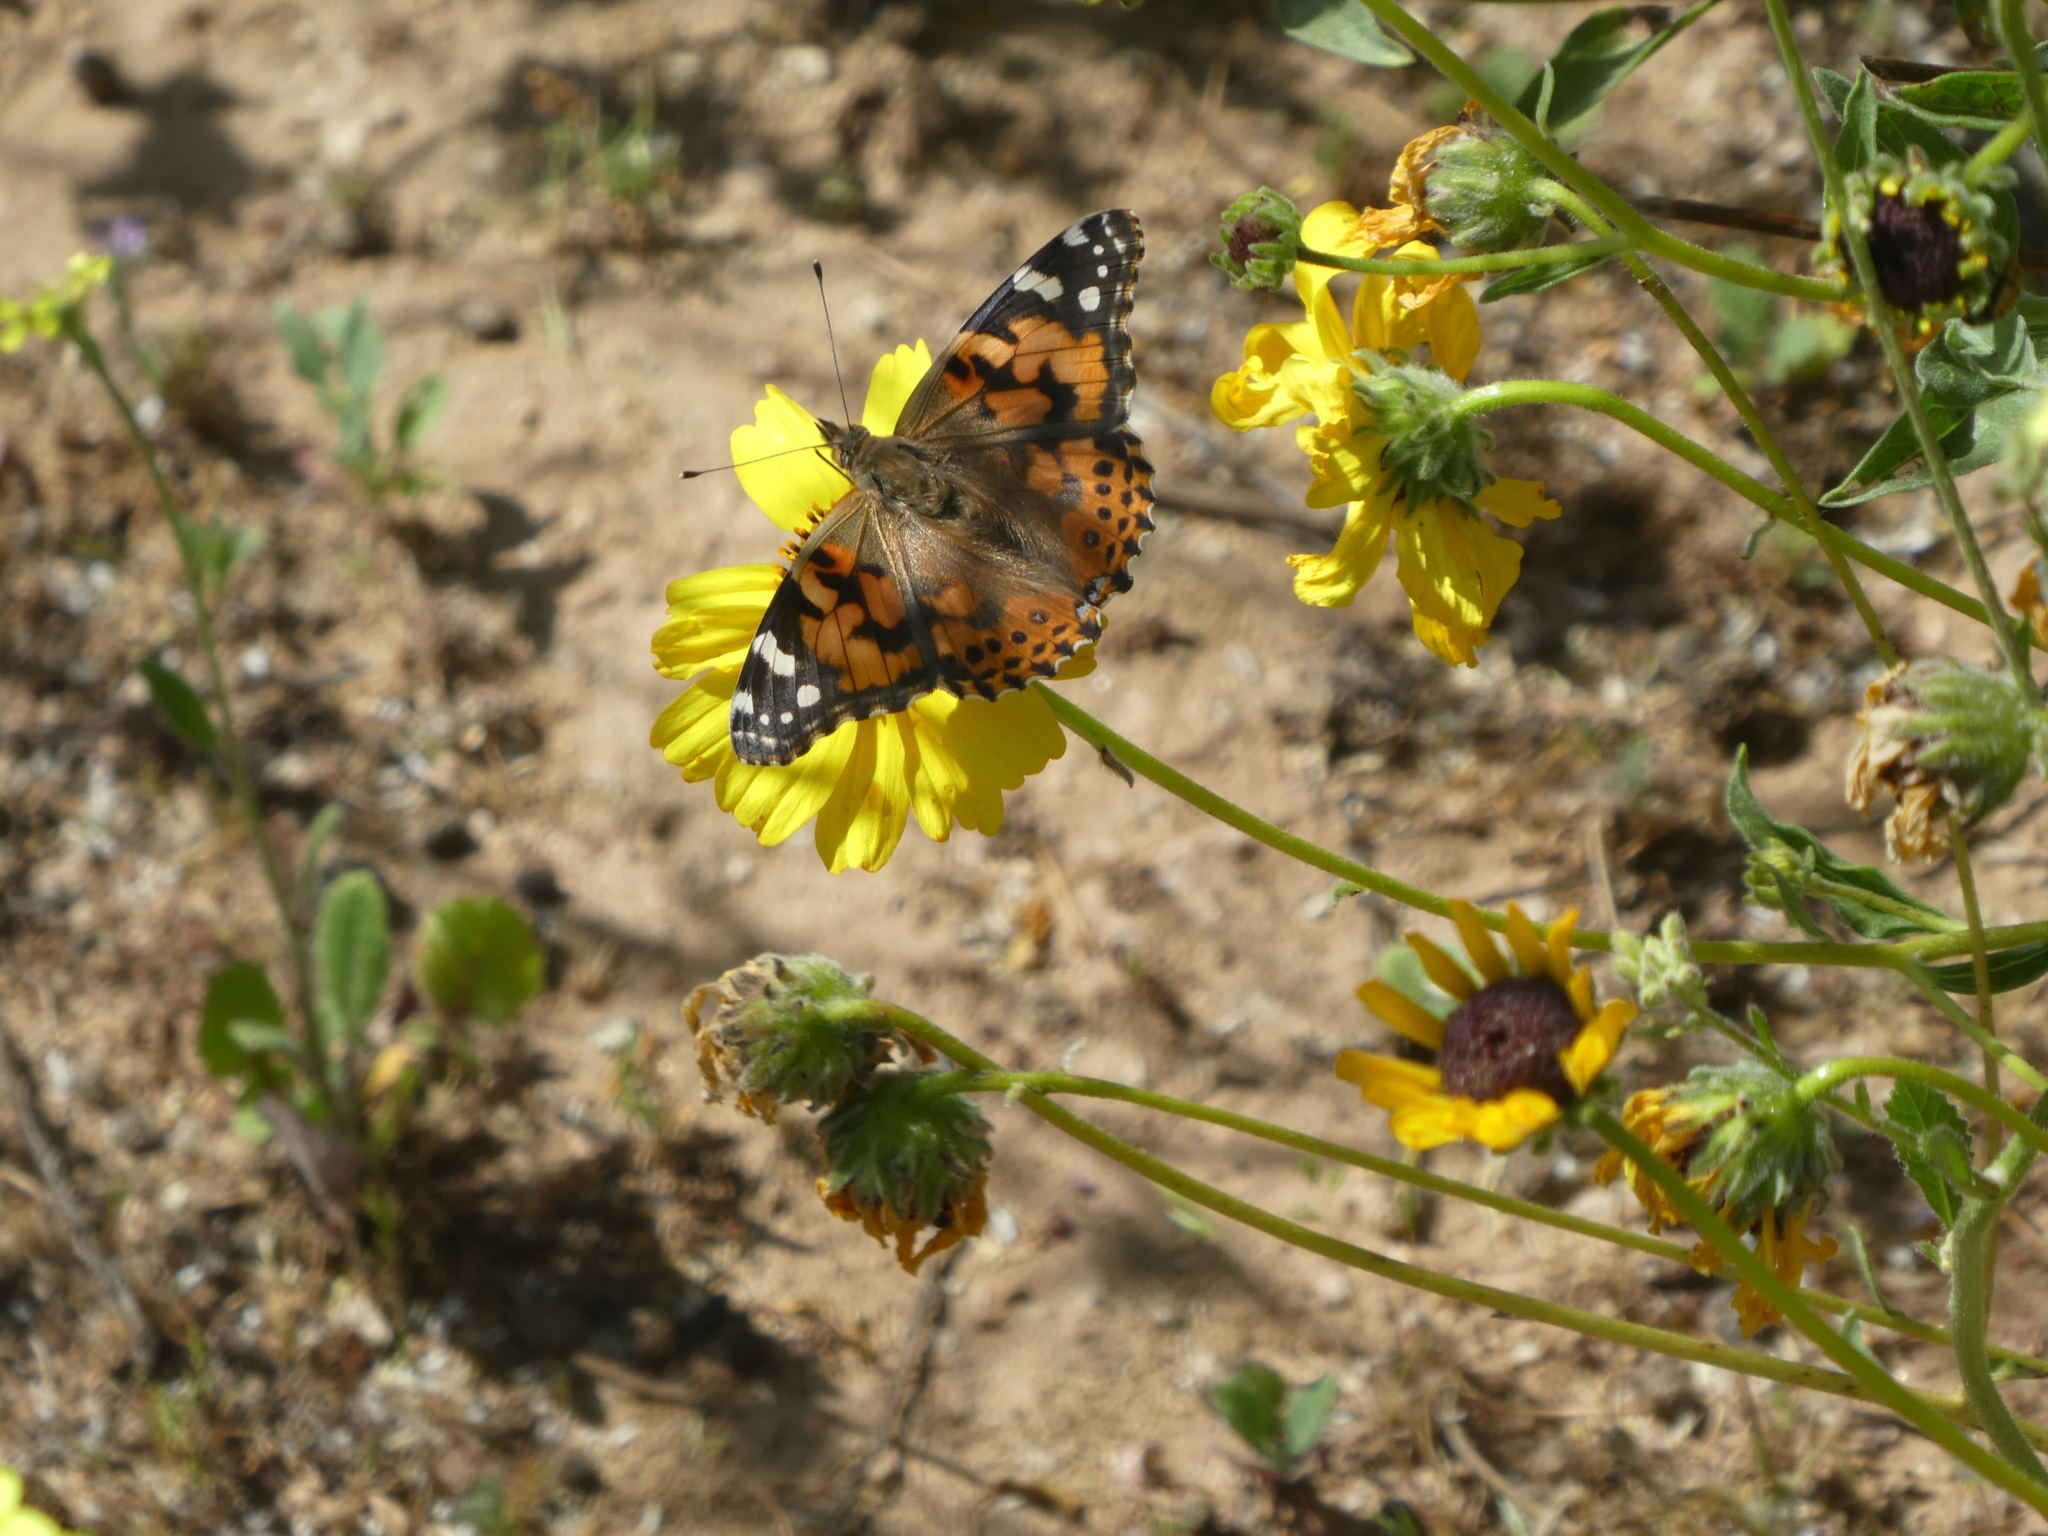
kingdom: Animalia
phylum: Arthropoda
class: Insecta
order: Lepidoptera
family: Nymphalidae
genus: Vanessa
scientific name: Vanessa cardui
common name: Painted lady
